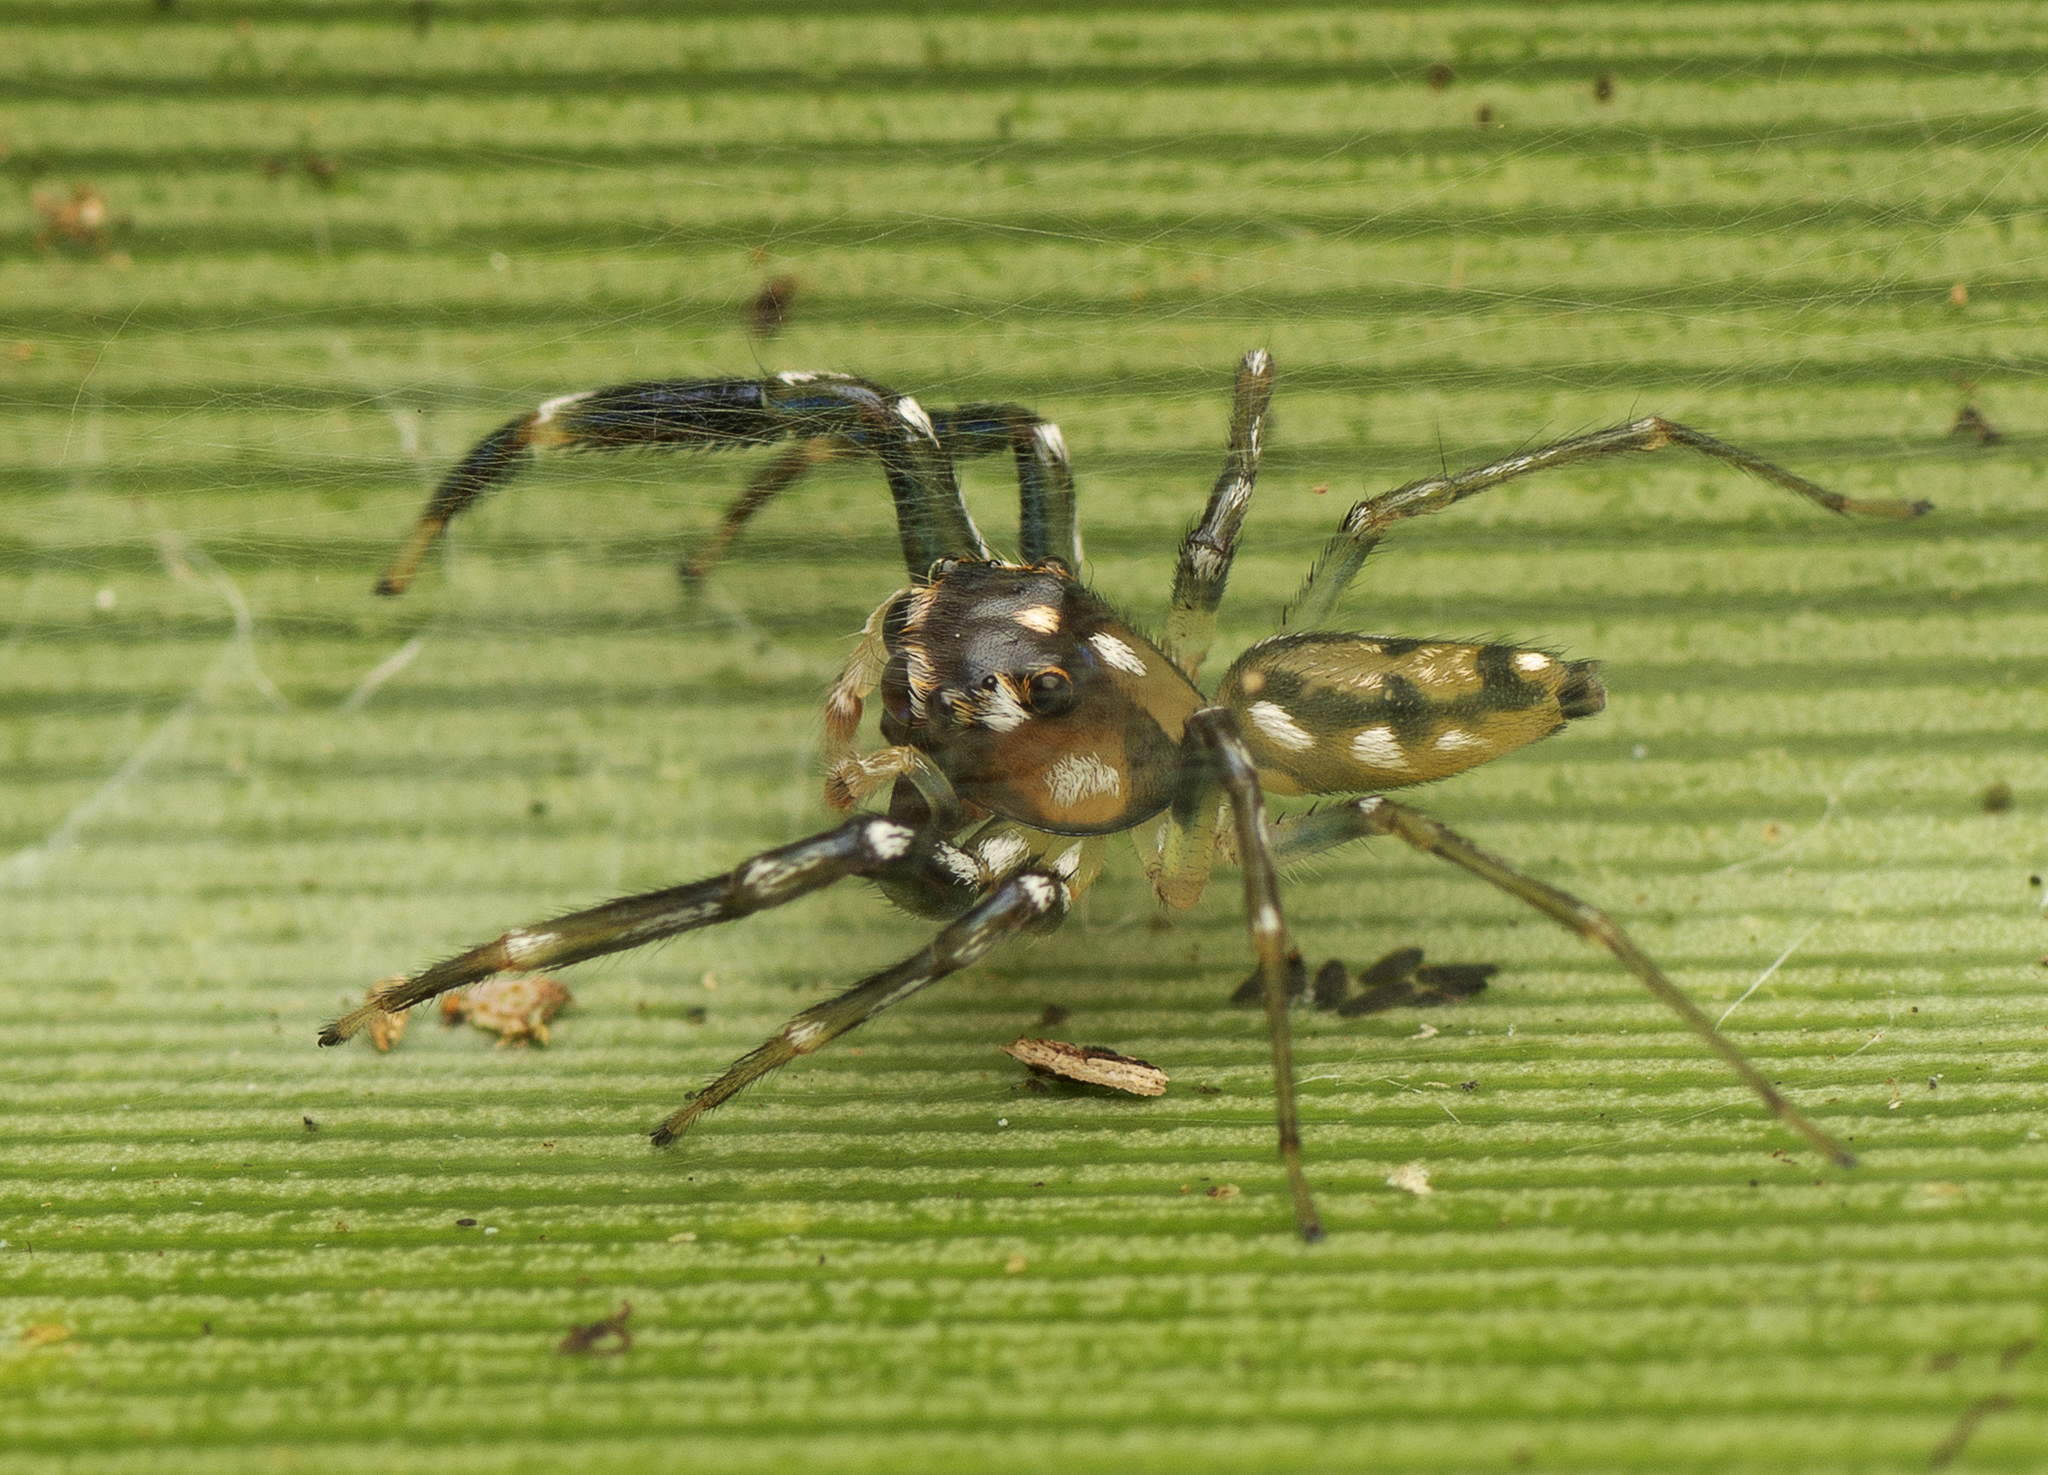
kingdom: Animalia
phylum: Arthropoda
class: Arachnida
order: Araneae
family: Salticidae
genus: Tauala
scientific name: Tauala lepidus
